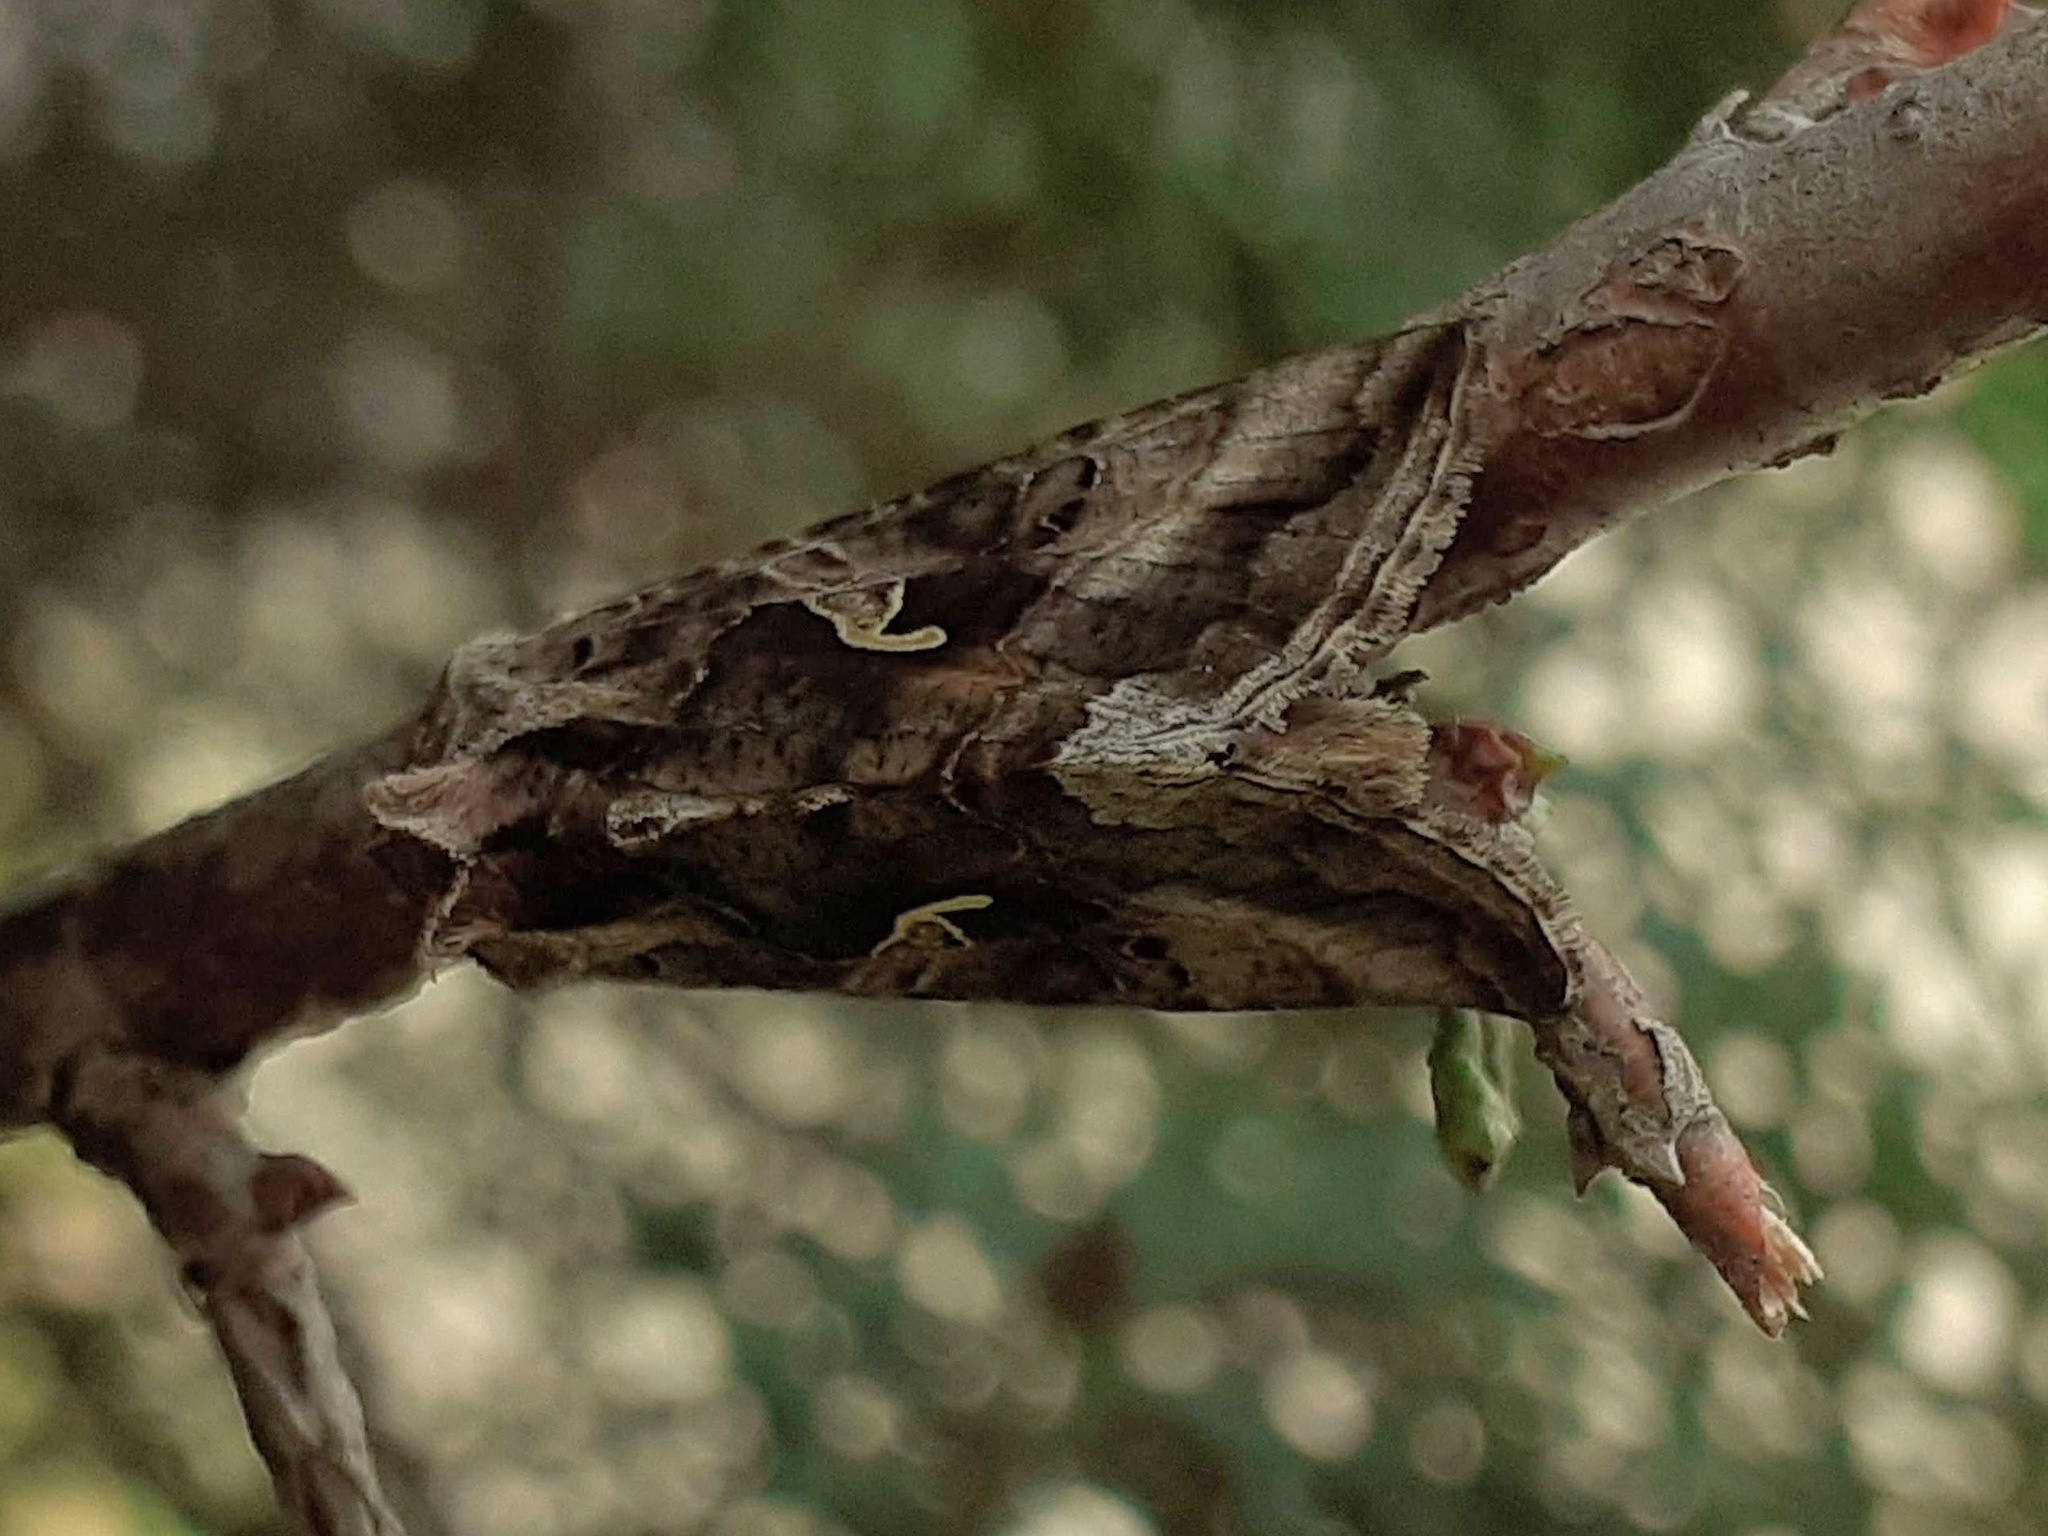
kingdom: Animalia
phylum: Arthropoda
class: Insecta
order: Lepidoptera
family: Noctuidae
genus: Autographa
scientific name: Autographa gamma
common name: Silver y
